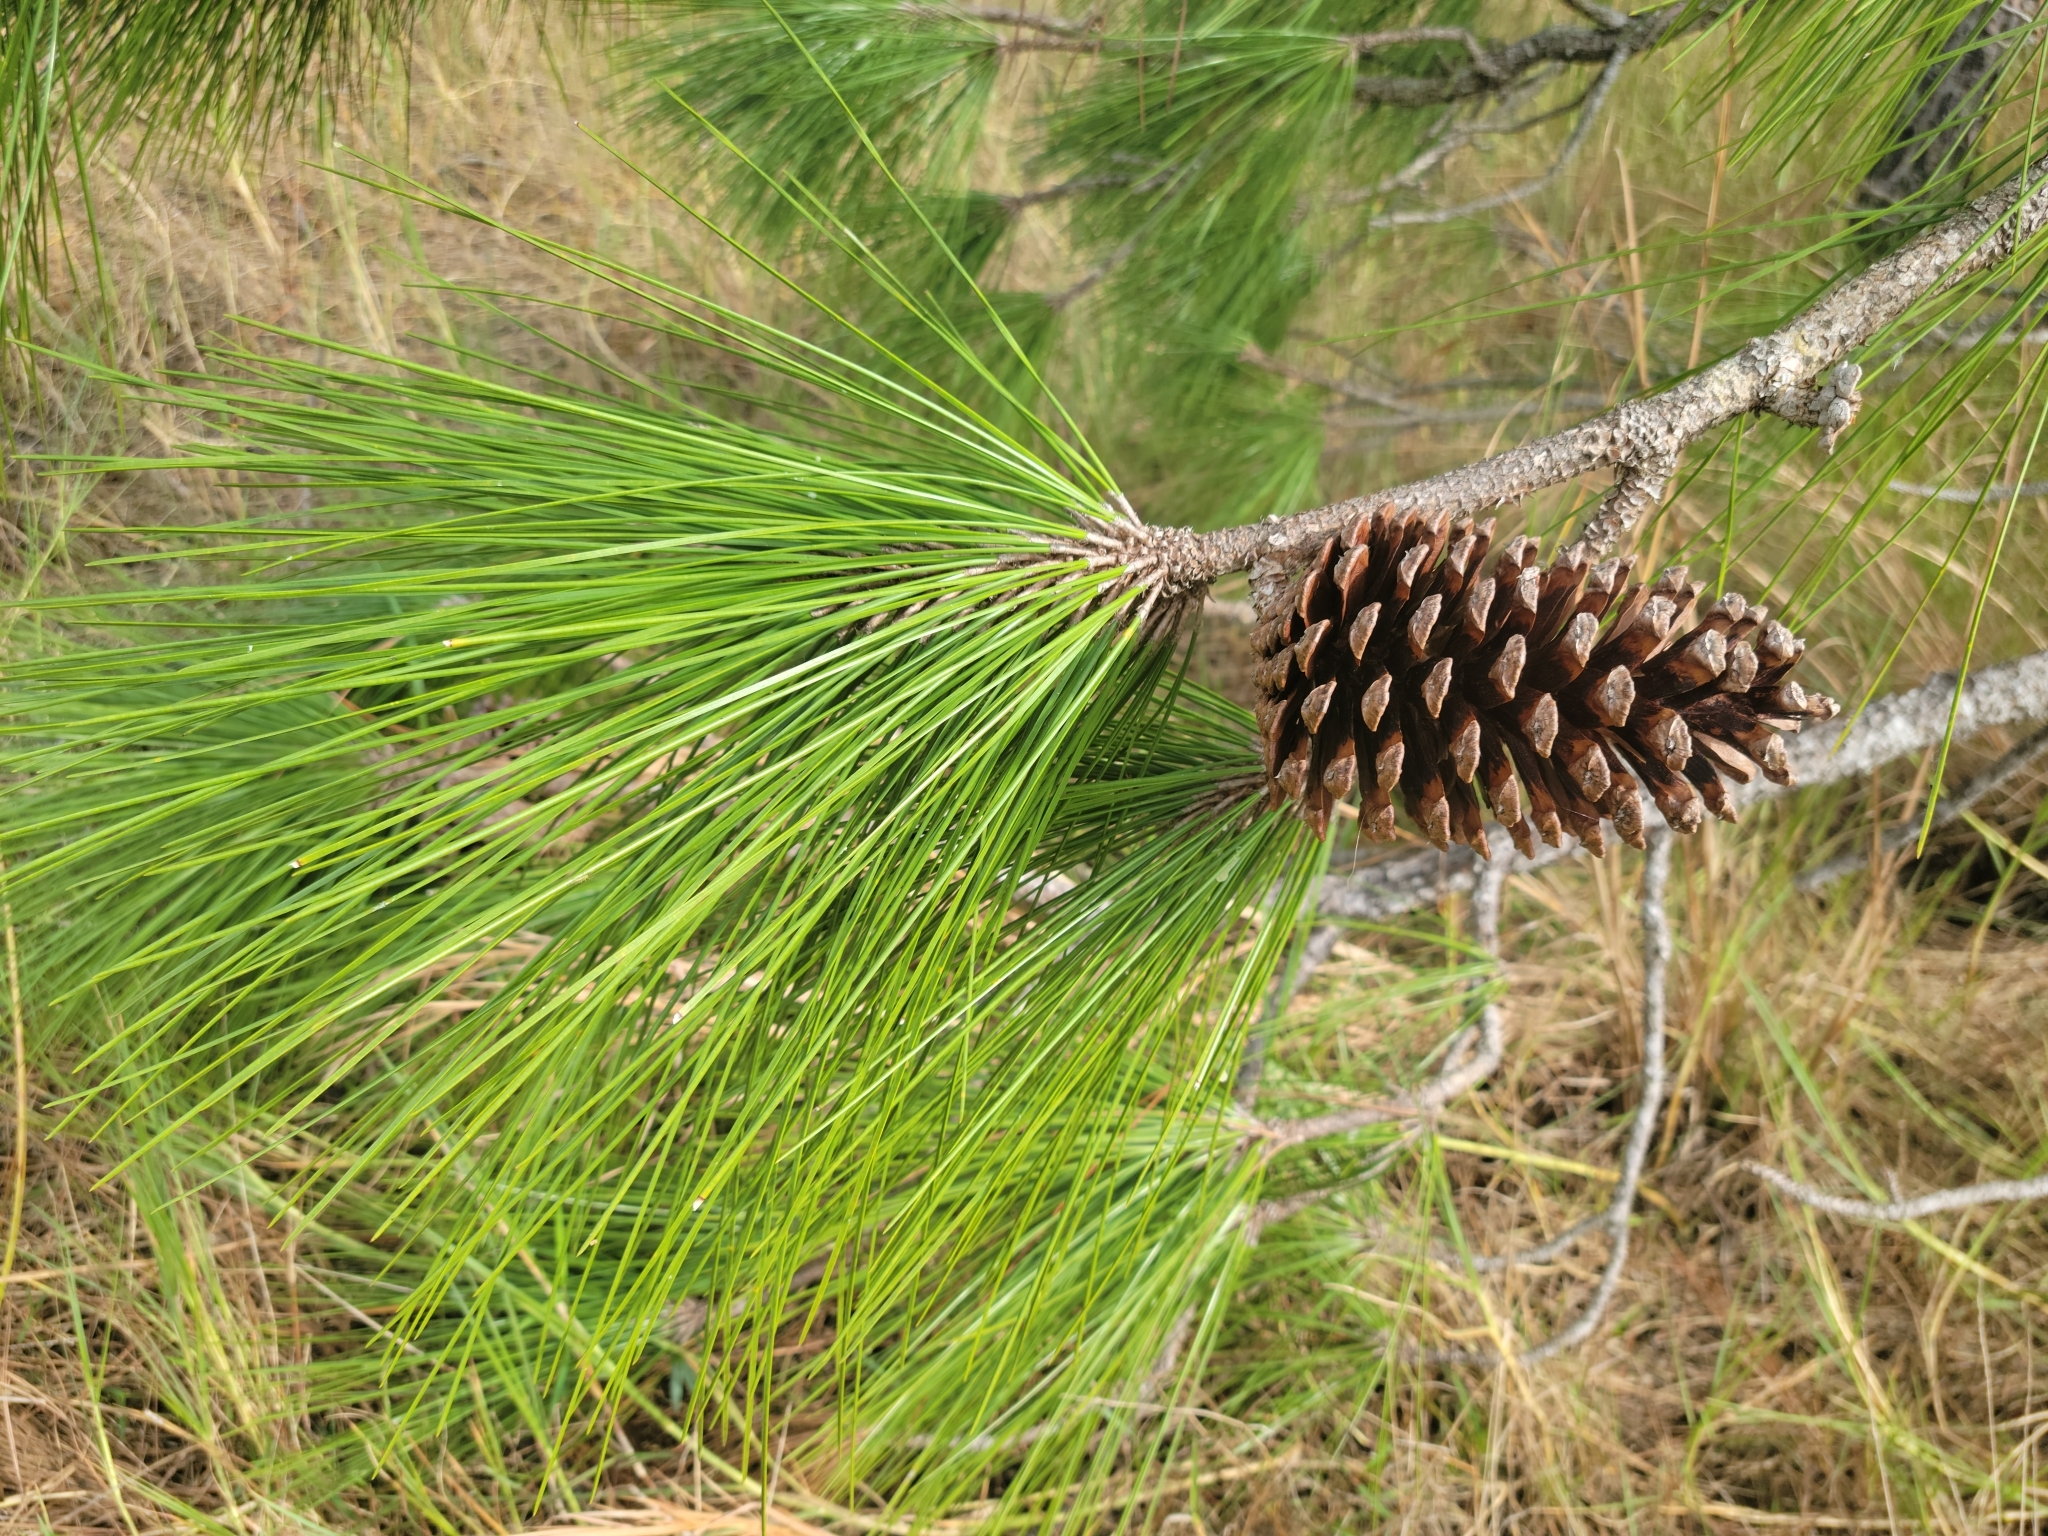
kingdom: Plantae
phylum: Tracheophyta
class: Pinopsida
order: Pinales
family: Pinaceae
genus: Pinus
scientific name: Pinus elliottii
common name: Slash pine
